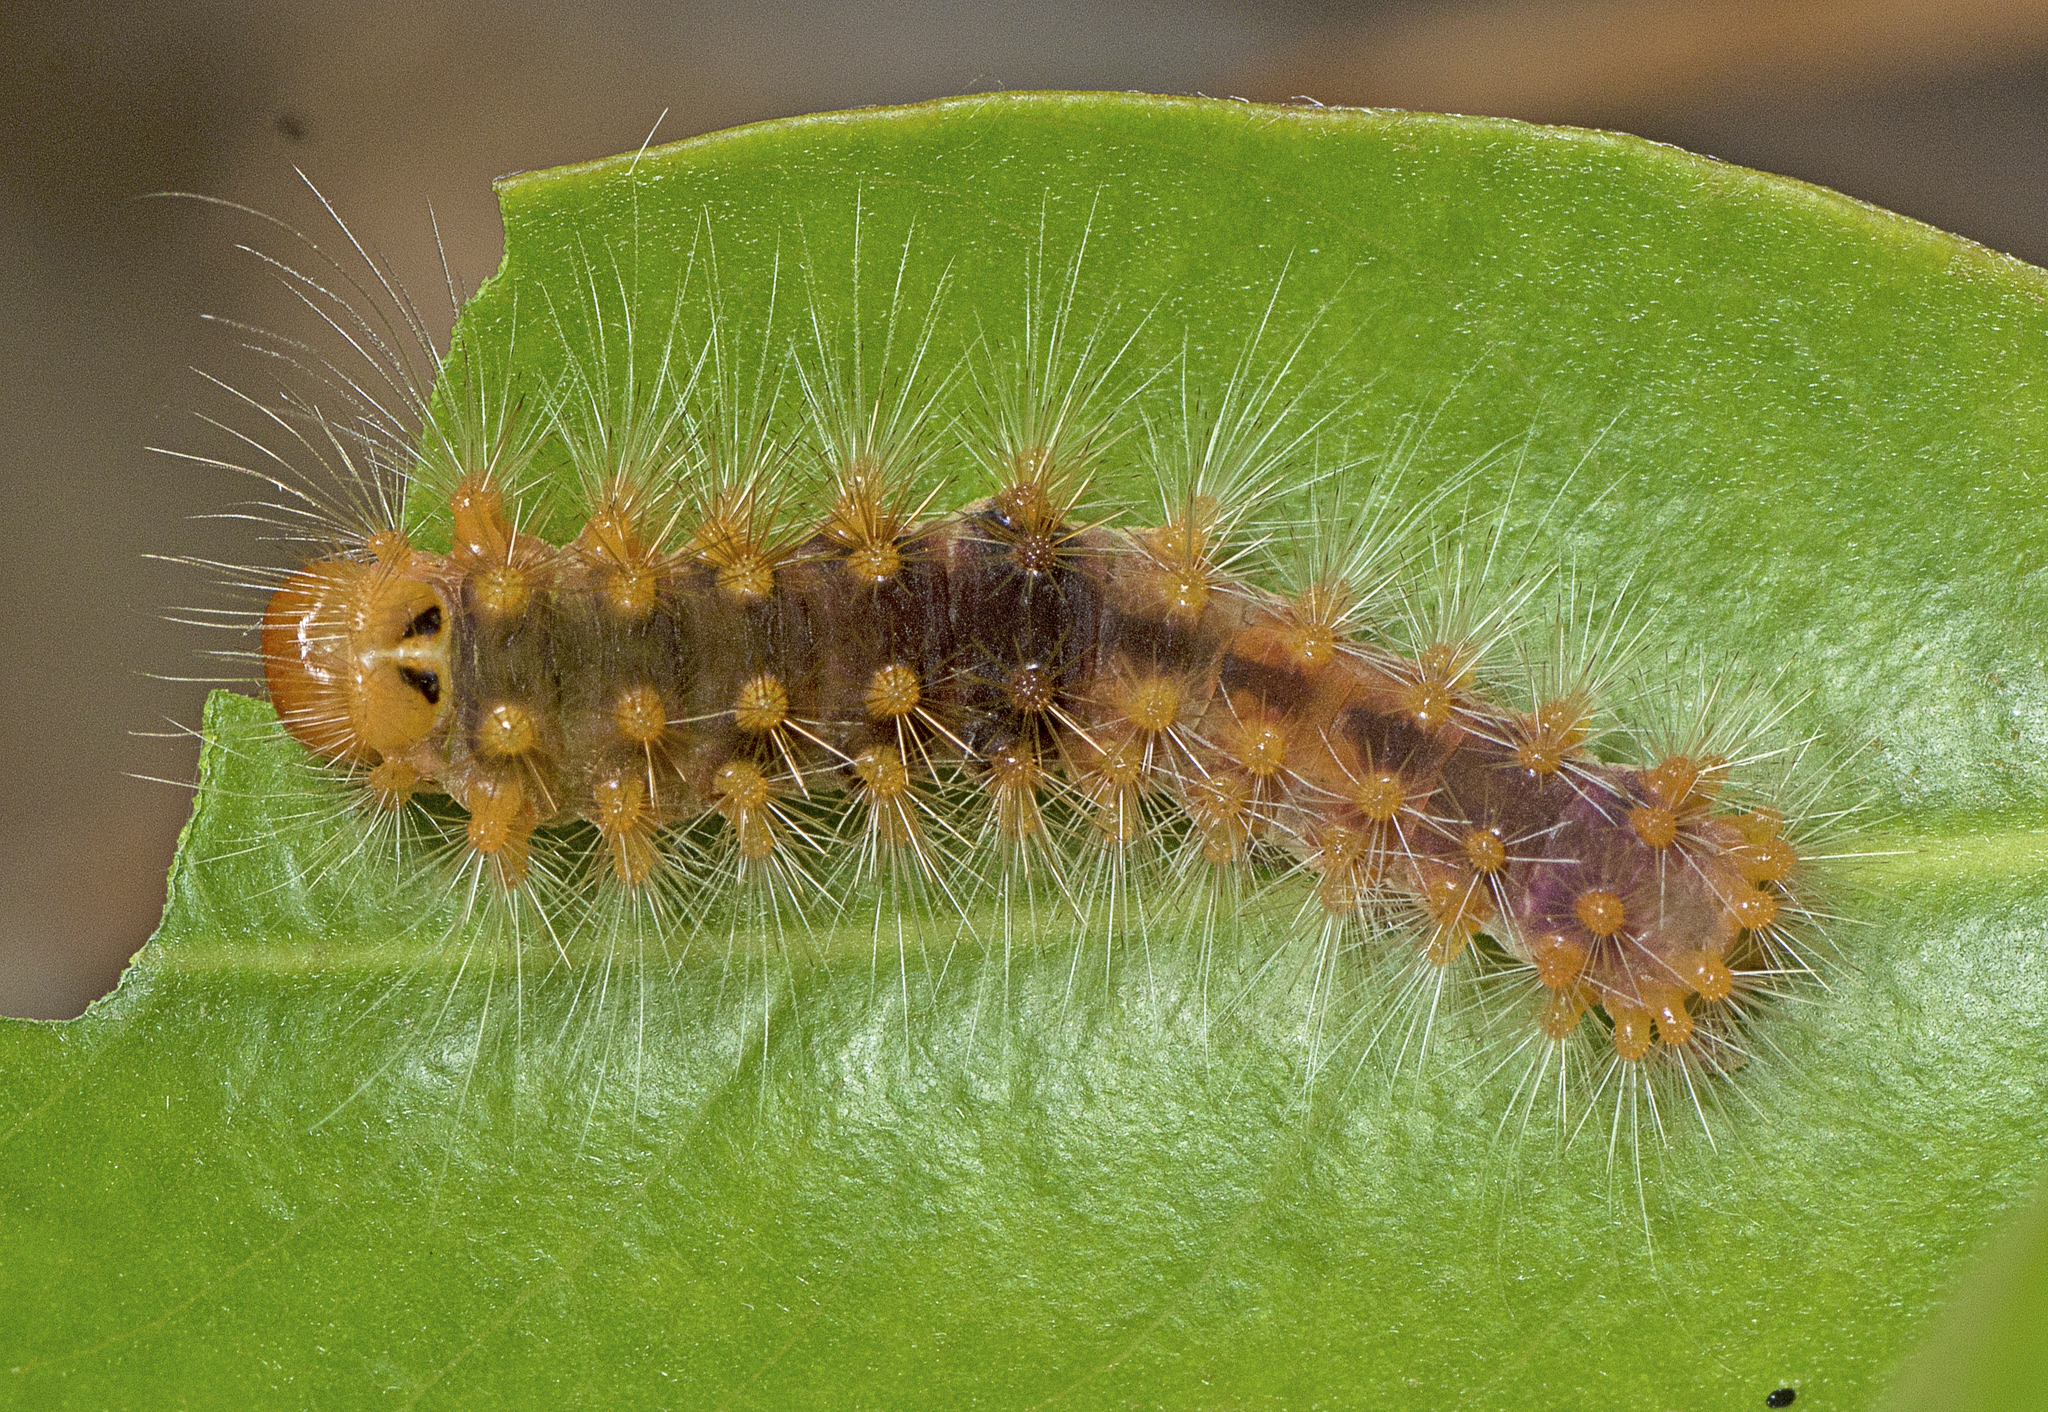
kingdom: Animalia
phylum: Arthropoda
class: Insecta
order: Lepidoptera
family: Nolidae
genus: Barasa
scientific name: Barasa cymatistis
